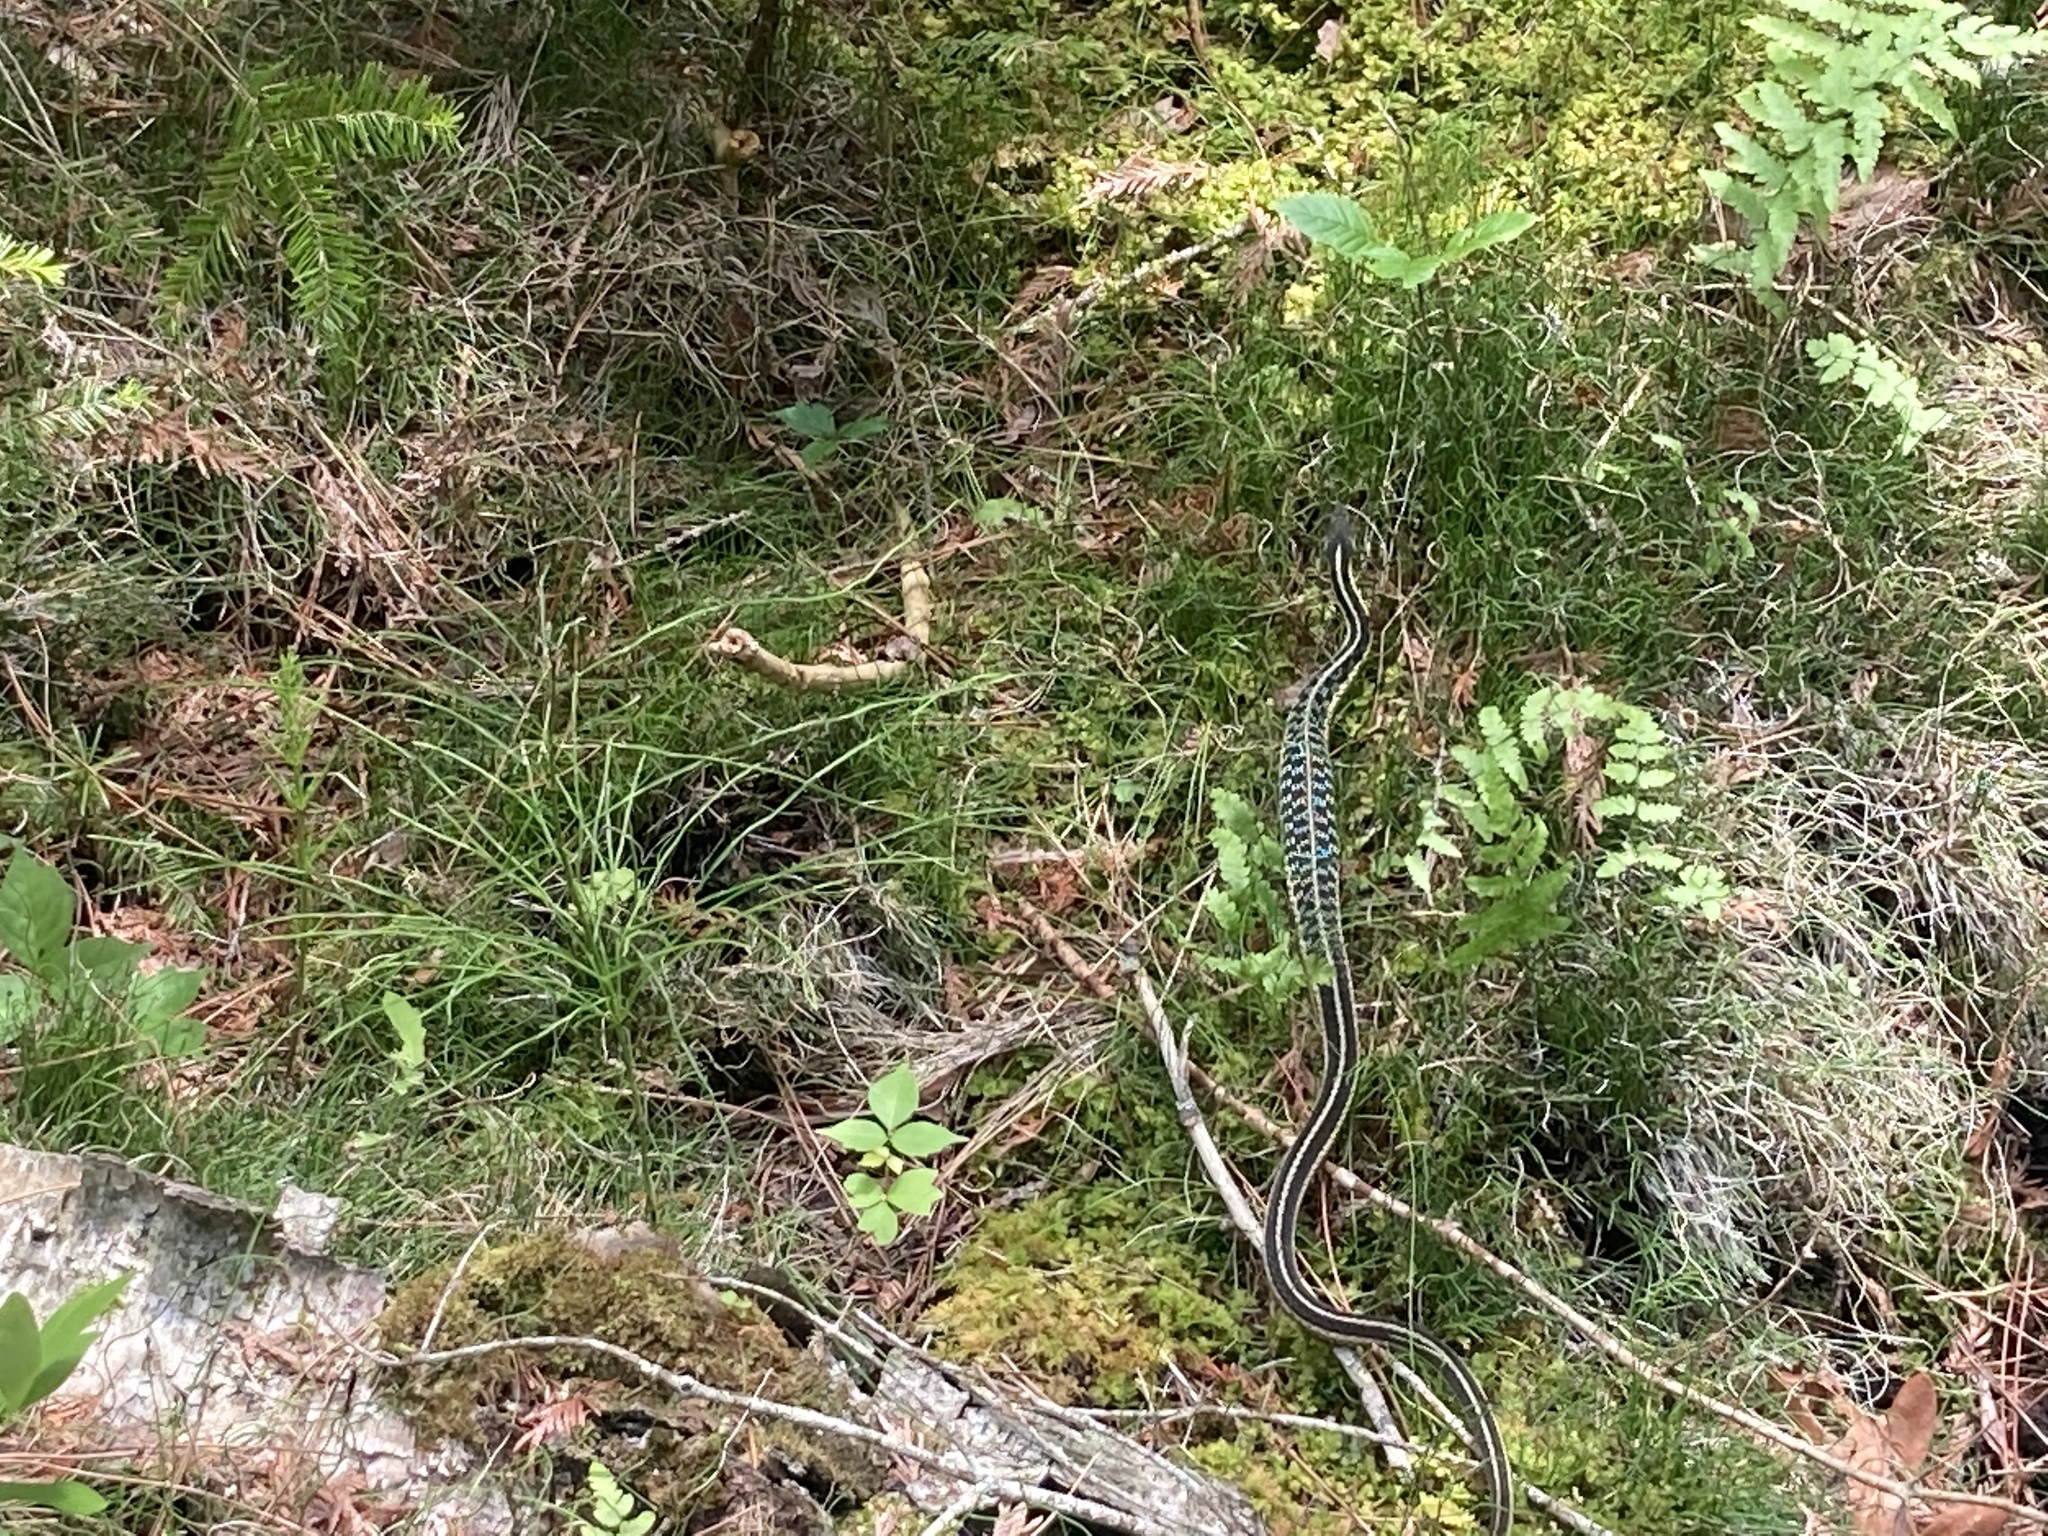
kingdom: Animalia
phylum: Chordata
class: Squamata
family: Colubridae
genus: Thamnophis
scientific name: Thamnophis sirtalis
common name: Common garter snake
